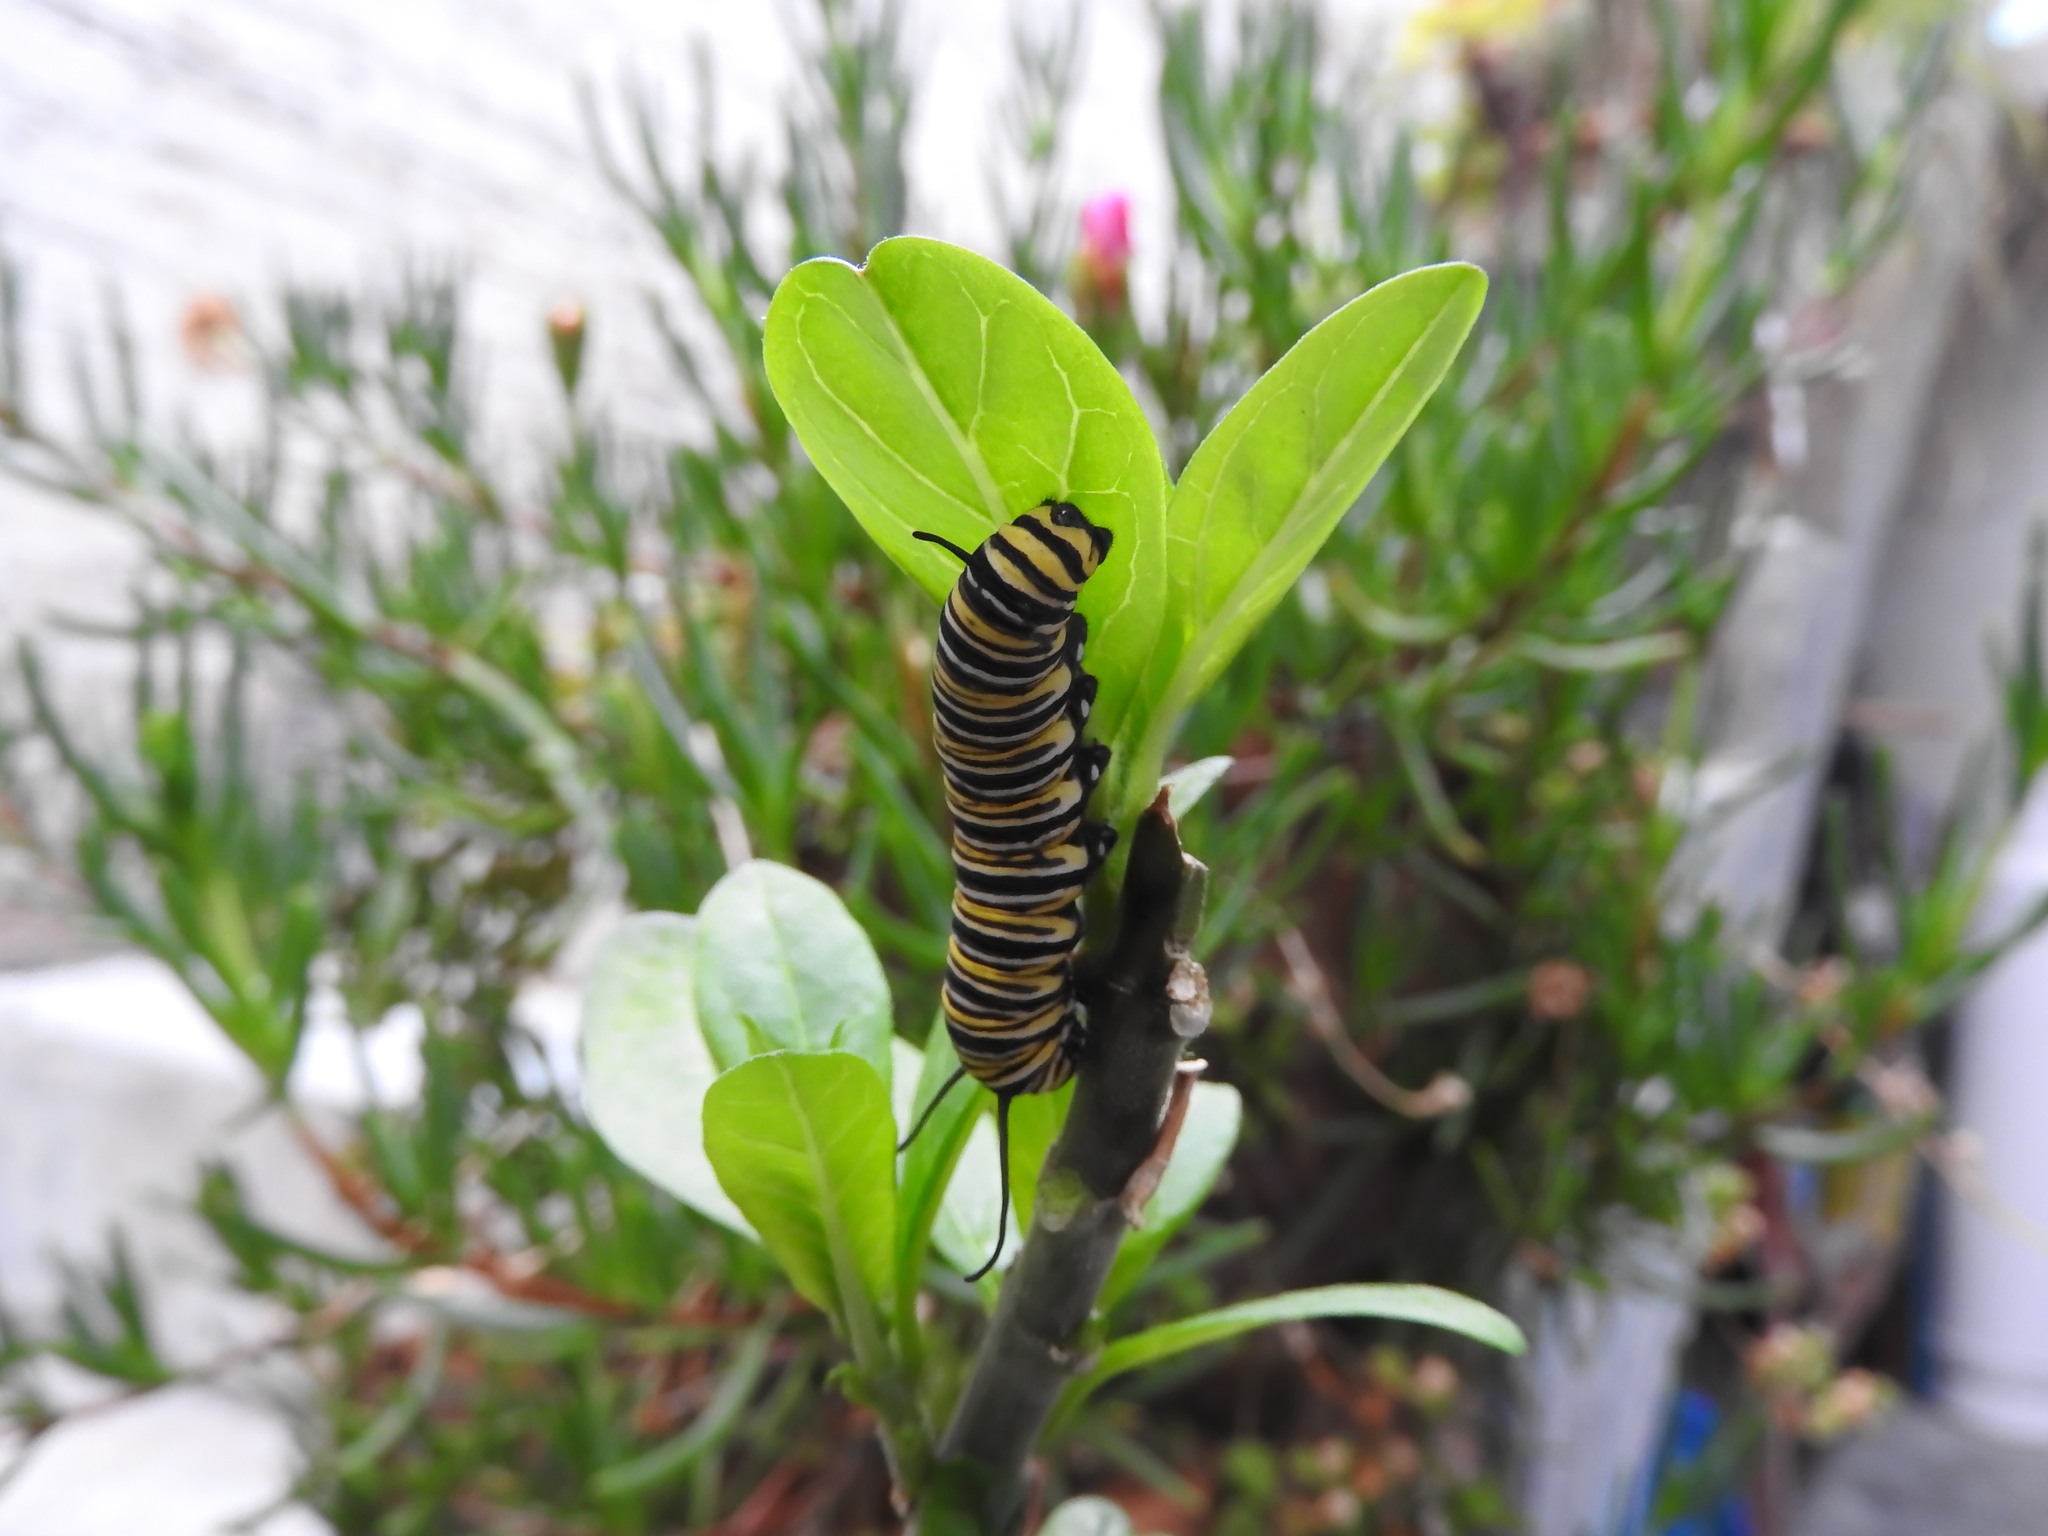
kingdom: Animalia
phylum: Arthropoda
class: Insecta
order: Lepidoptera
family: Nymphalidae
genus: Danaus
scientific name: Danaus plexippus
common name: Monarch
